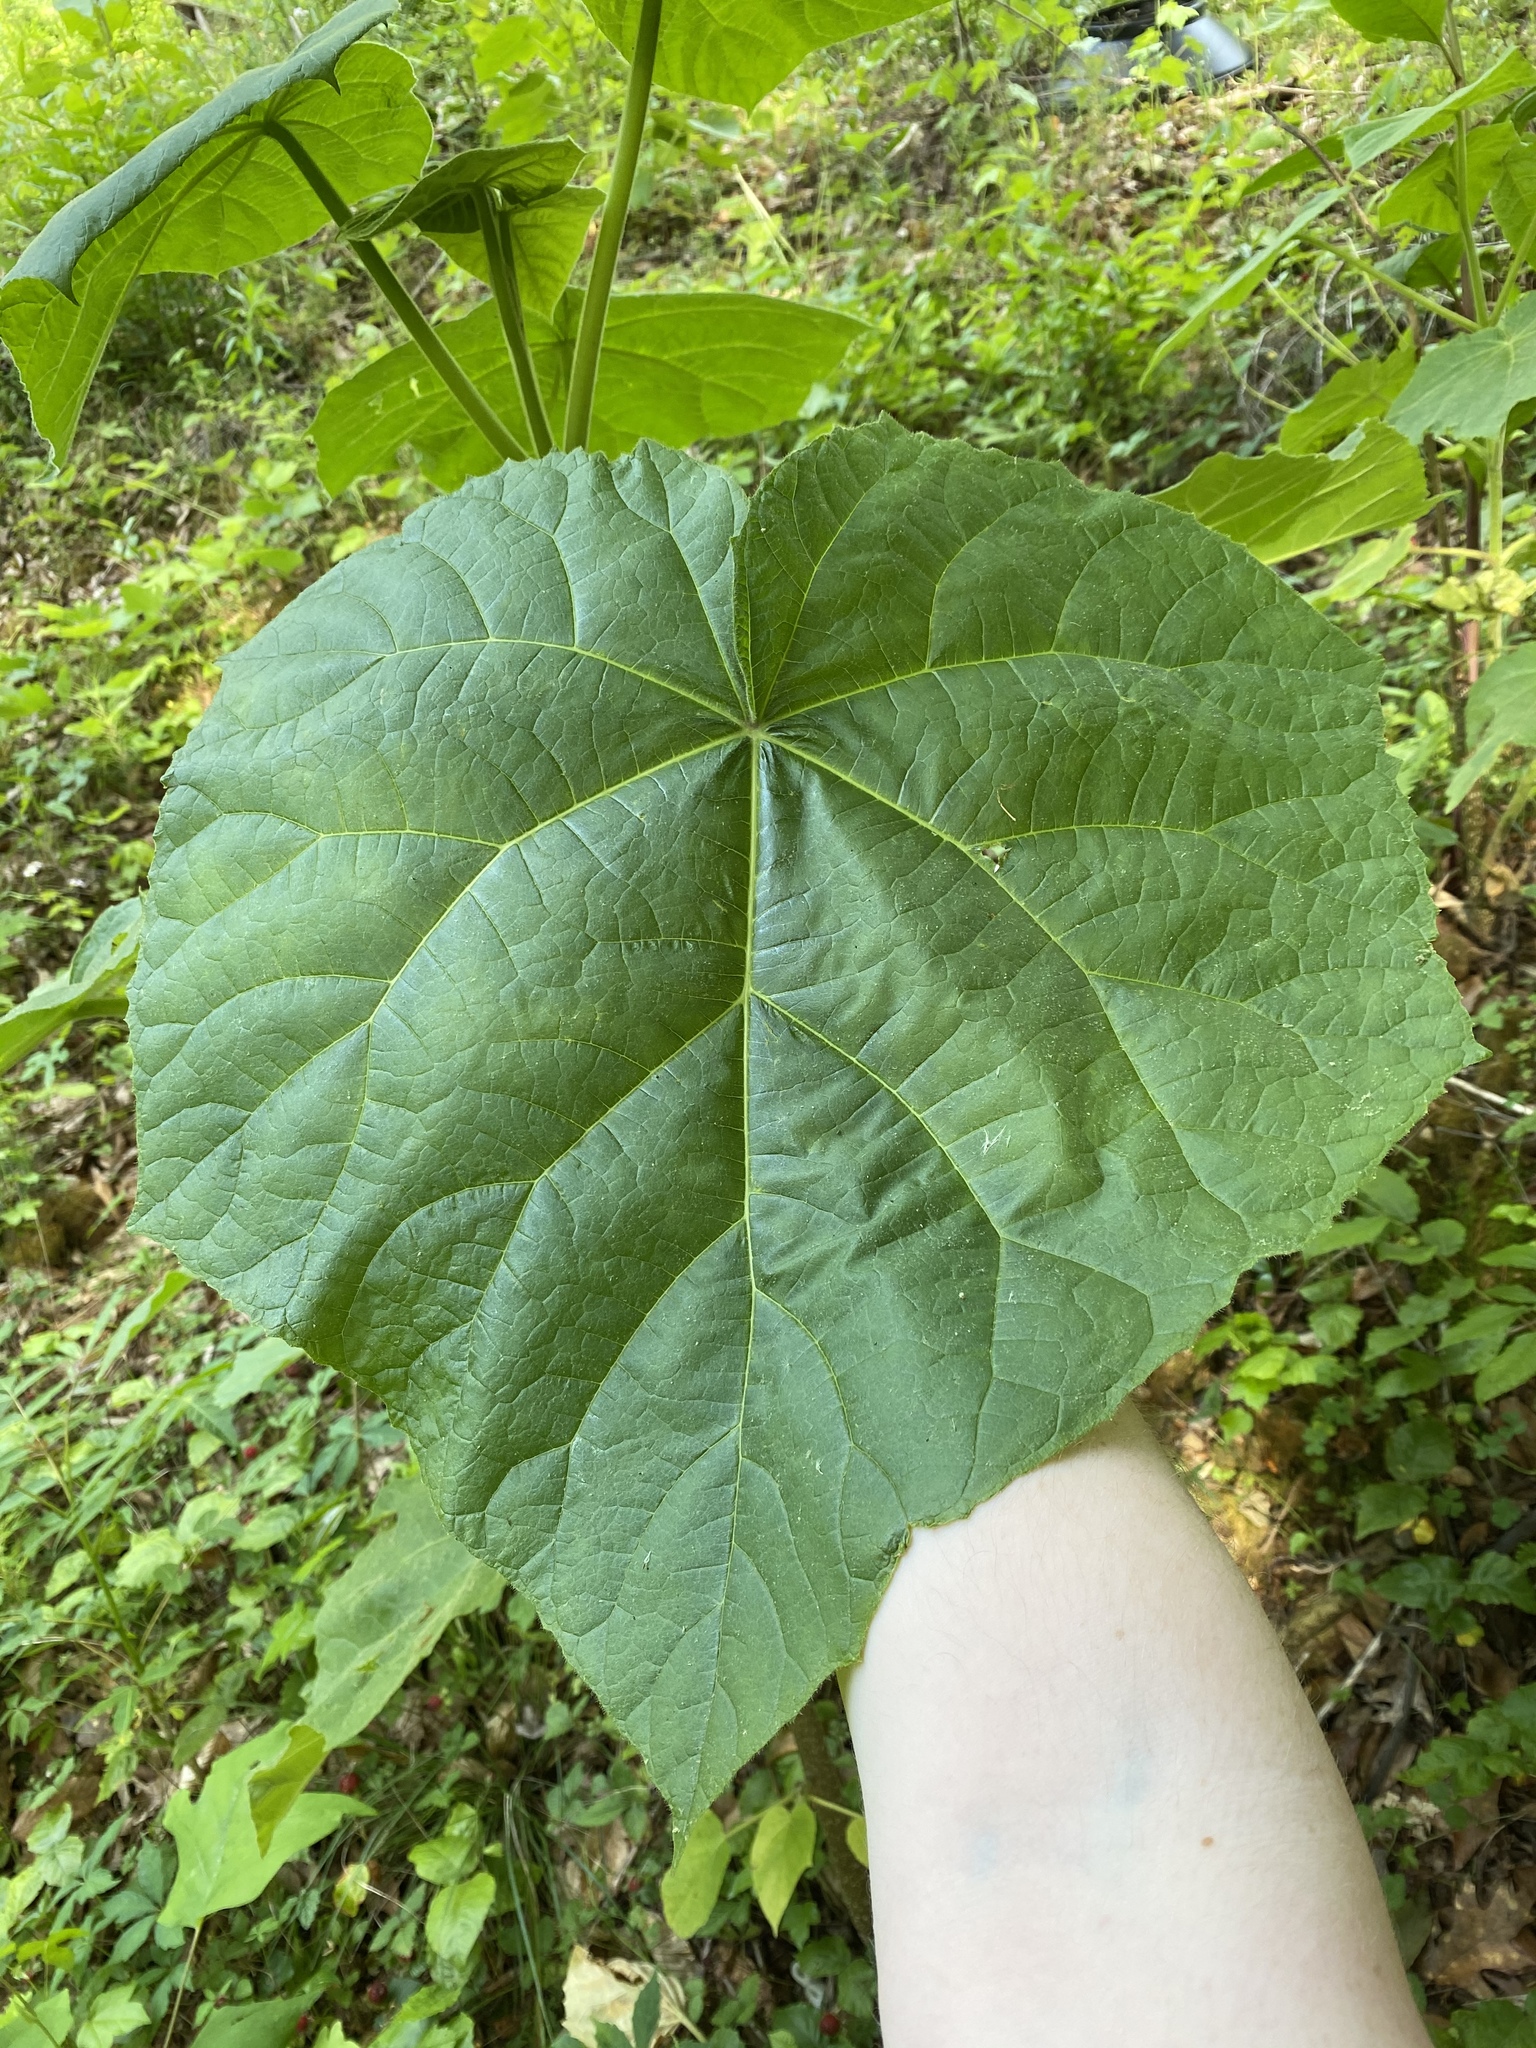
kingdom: Plantae
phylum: Tracheophyta
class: Magnoliopsida
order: Lamiales
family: Paulowniaceae
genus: Paulownia
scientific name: Paulownia tomentosa
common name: Foxglove-tree
